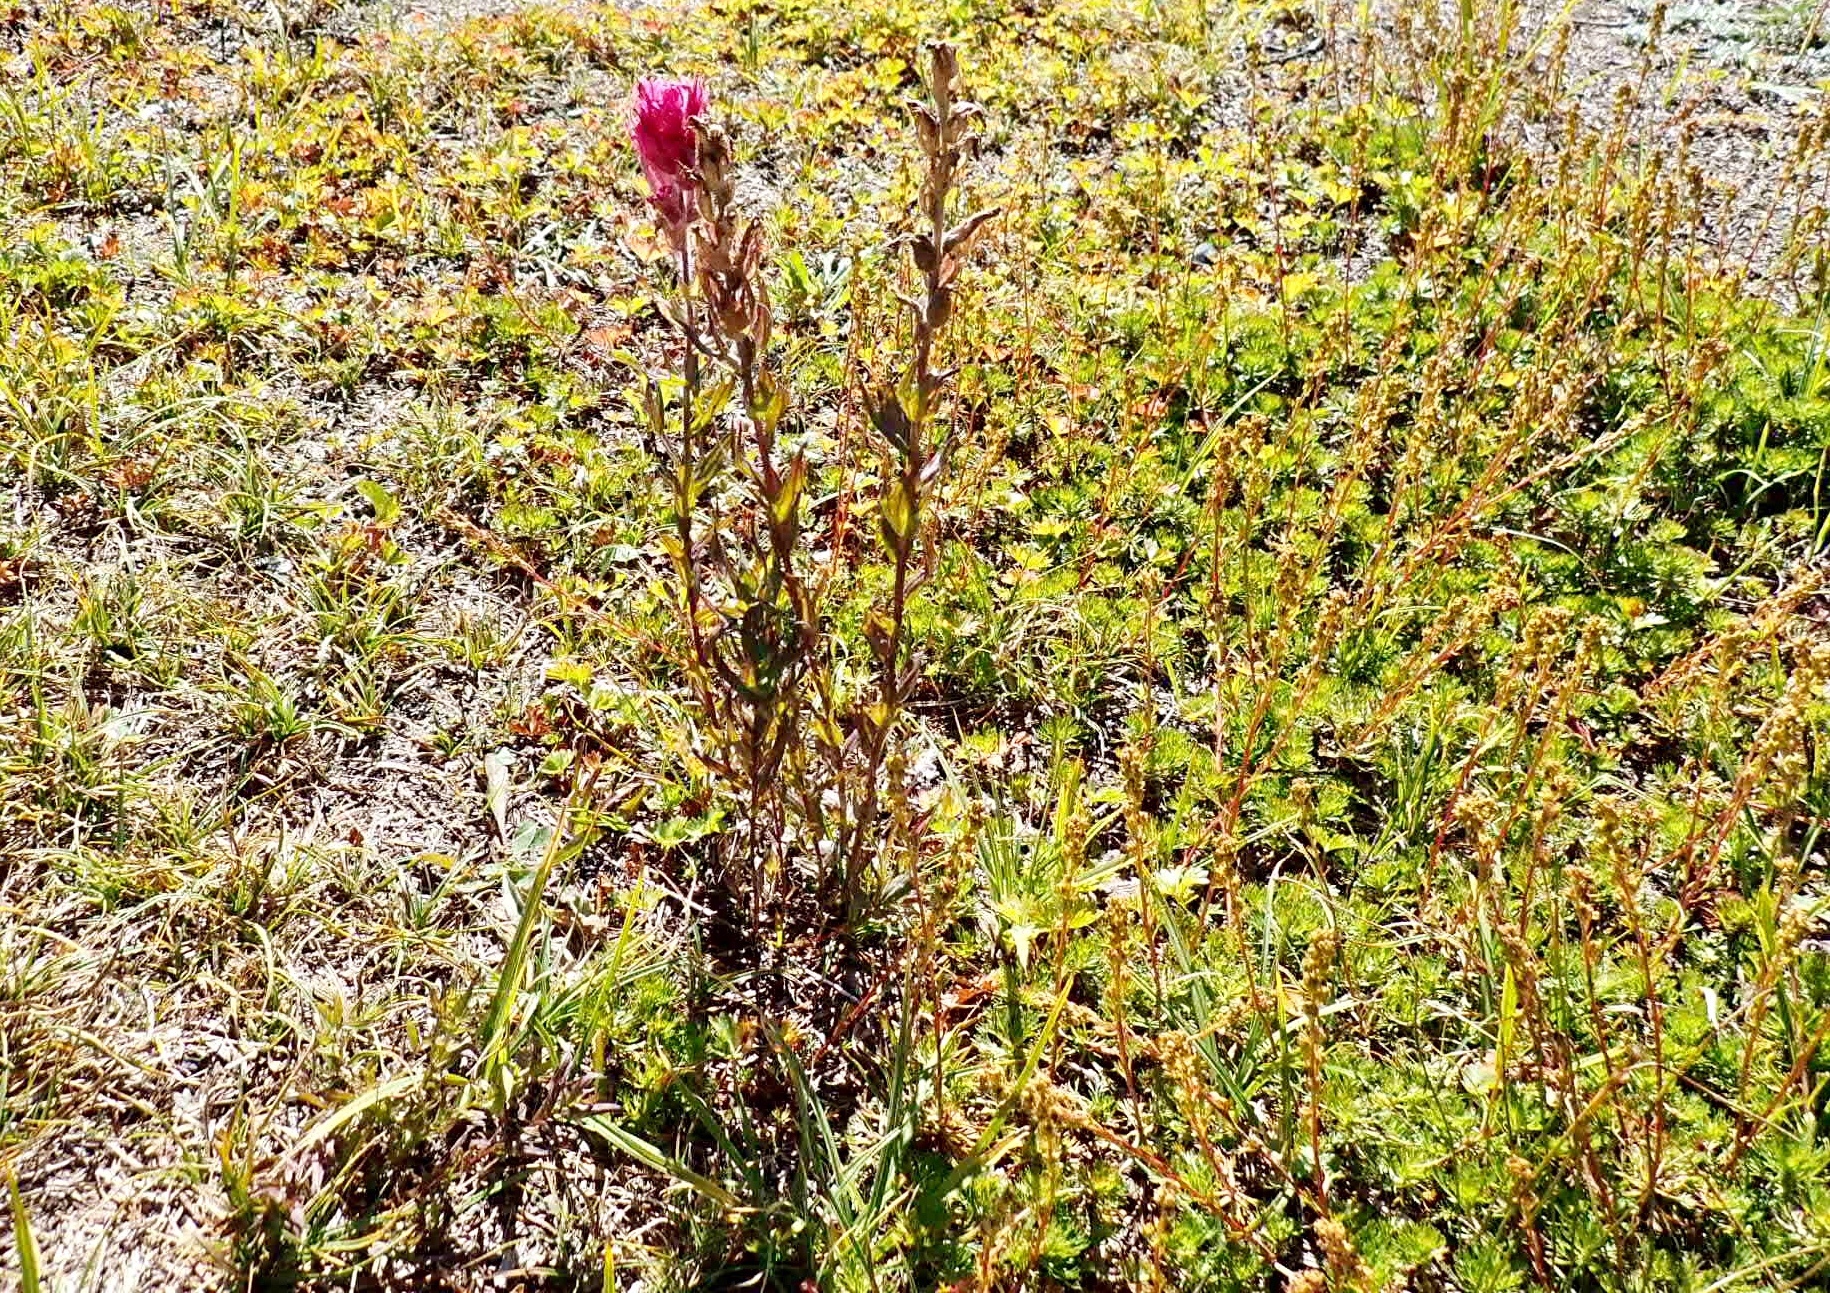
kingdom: Plantae
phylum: Tracheophyta
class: Magnoliopsida
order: Lamiales
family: Orobanchaceae
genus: Castilleja
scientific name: Castilleja parviflora
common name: Mountain paintbrush
